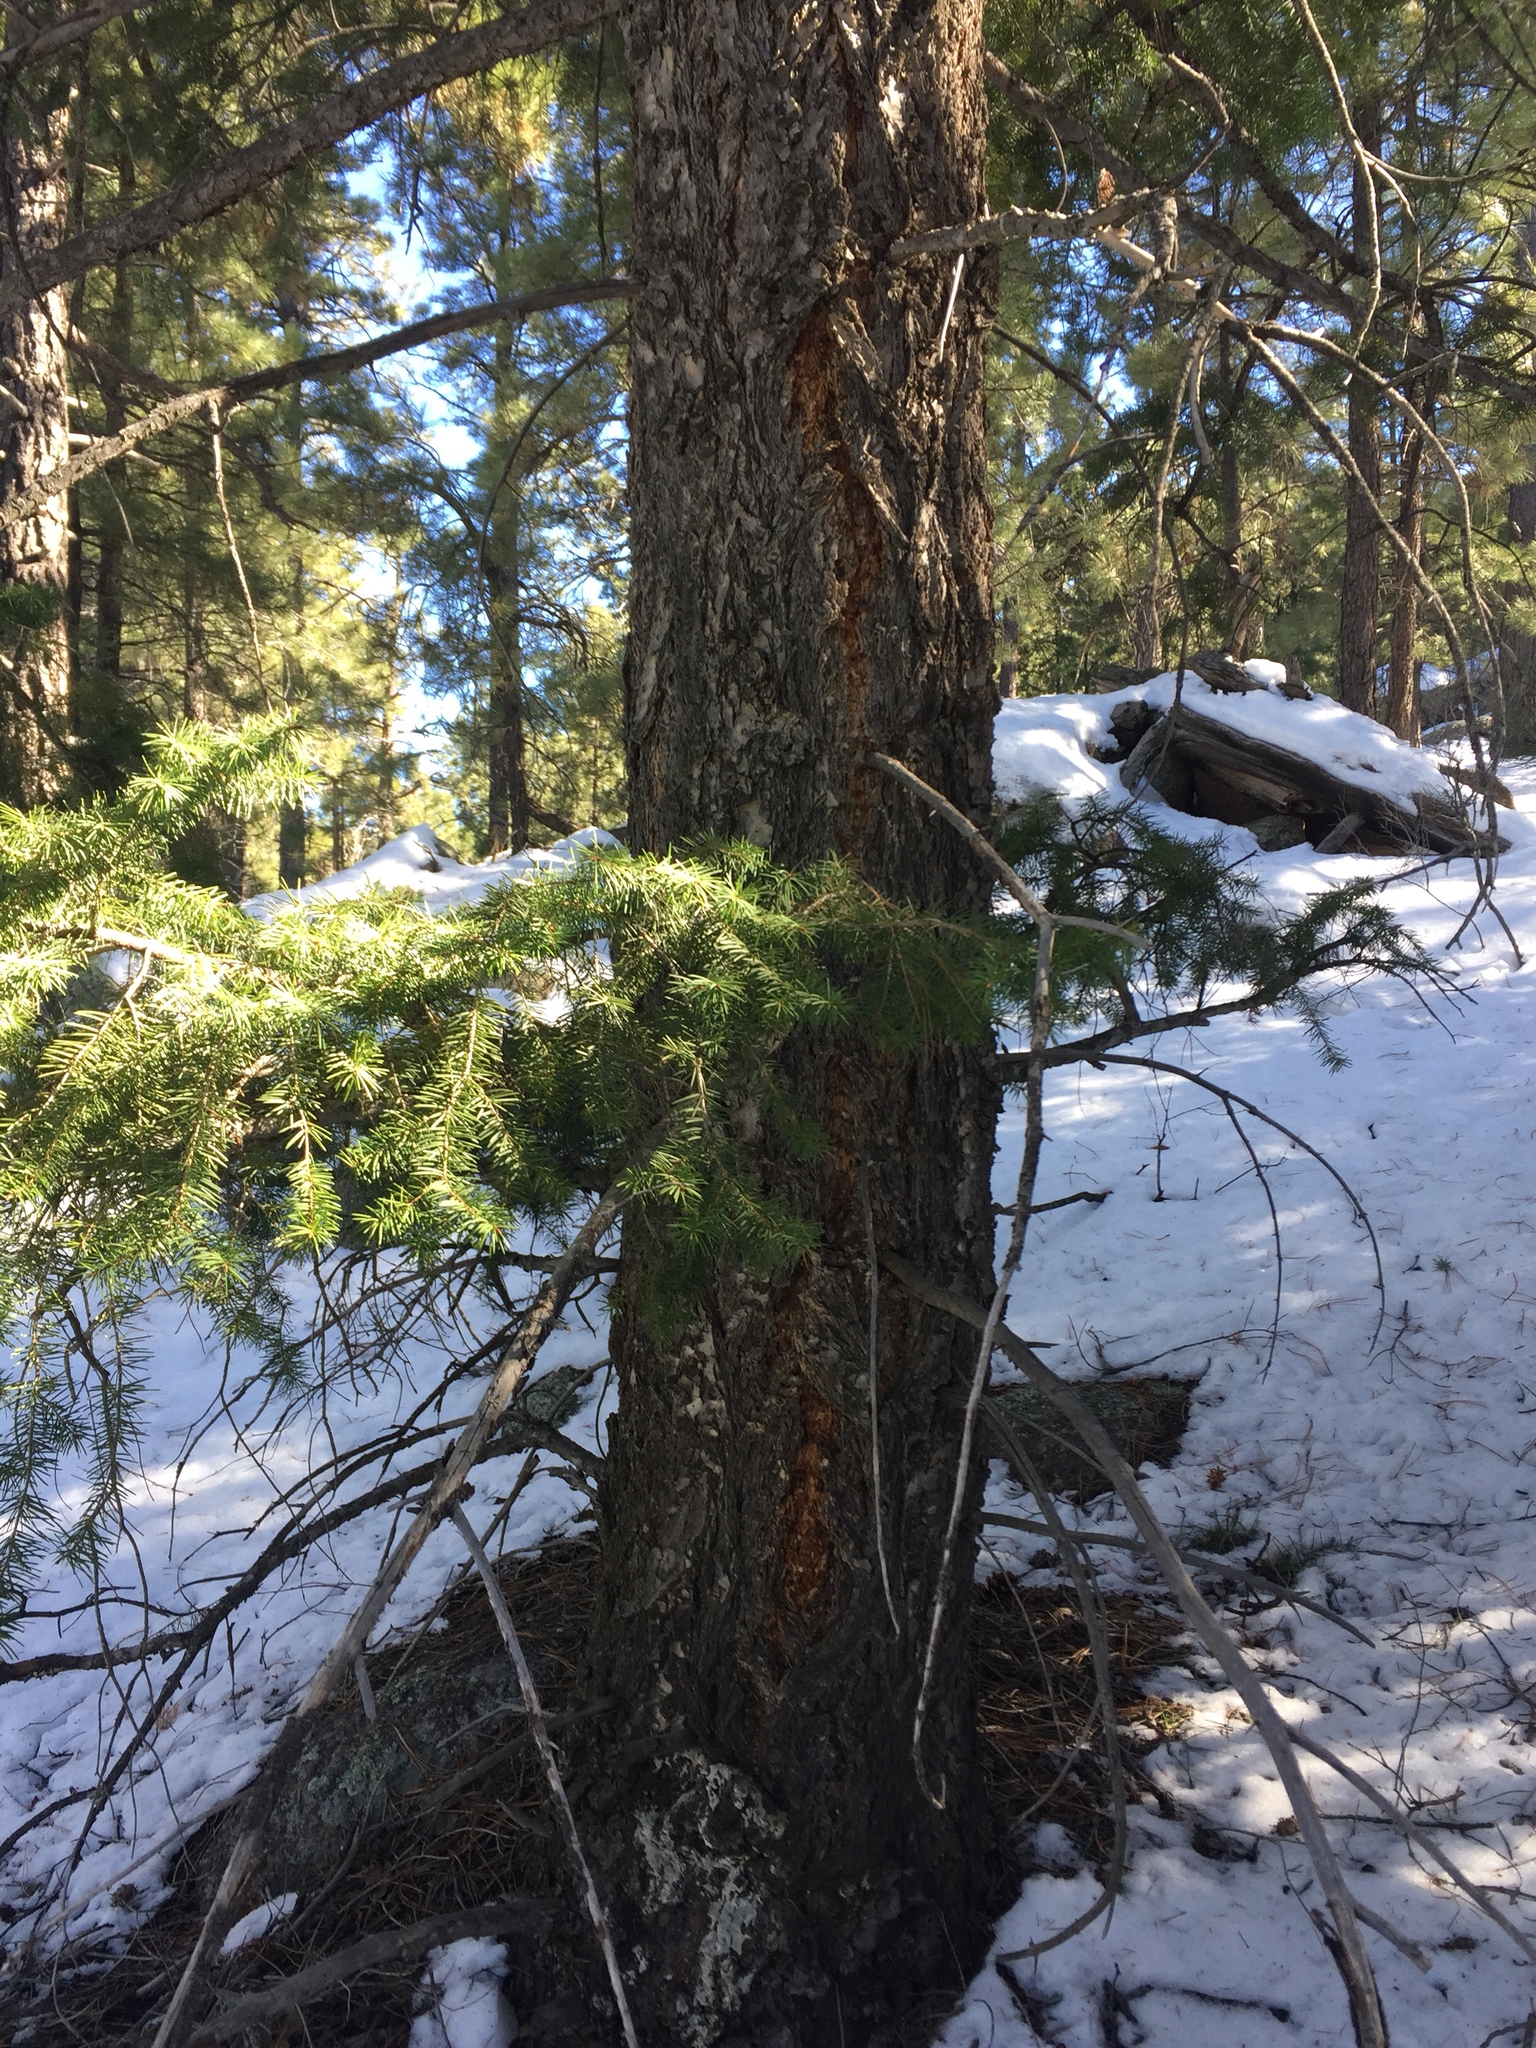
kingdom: Plantae
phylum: Tracheophyta
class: Pinopsida
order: Pinales
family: Pinaceae
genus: Pseudotsuga
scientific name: Pseudotsuga menziesii
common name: Douglas fir
